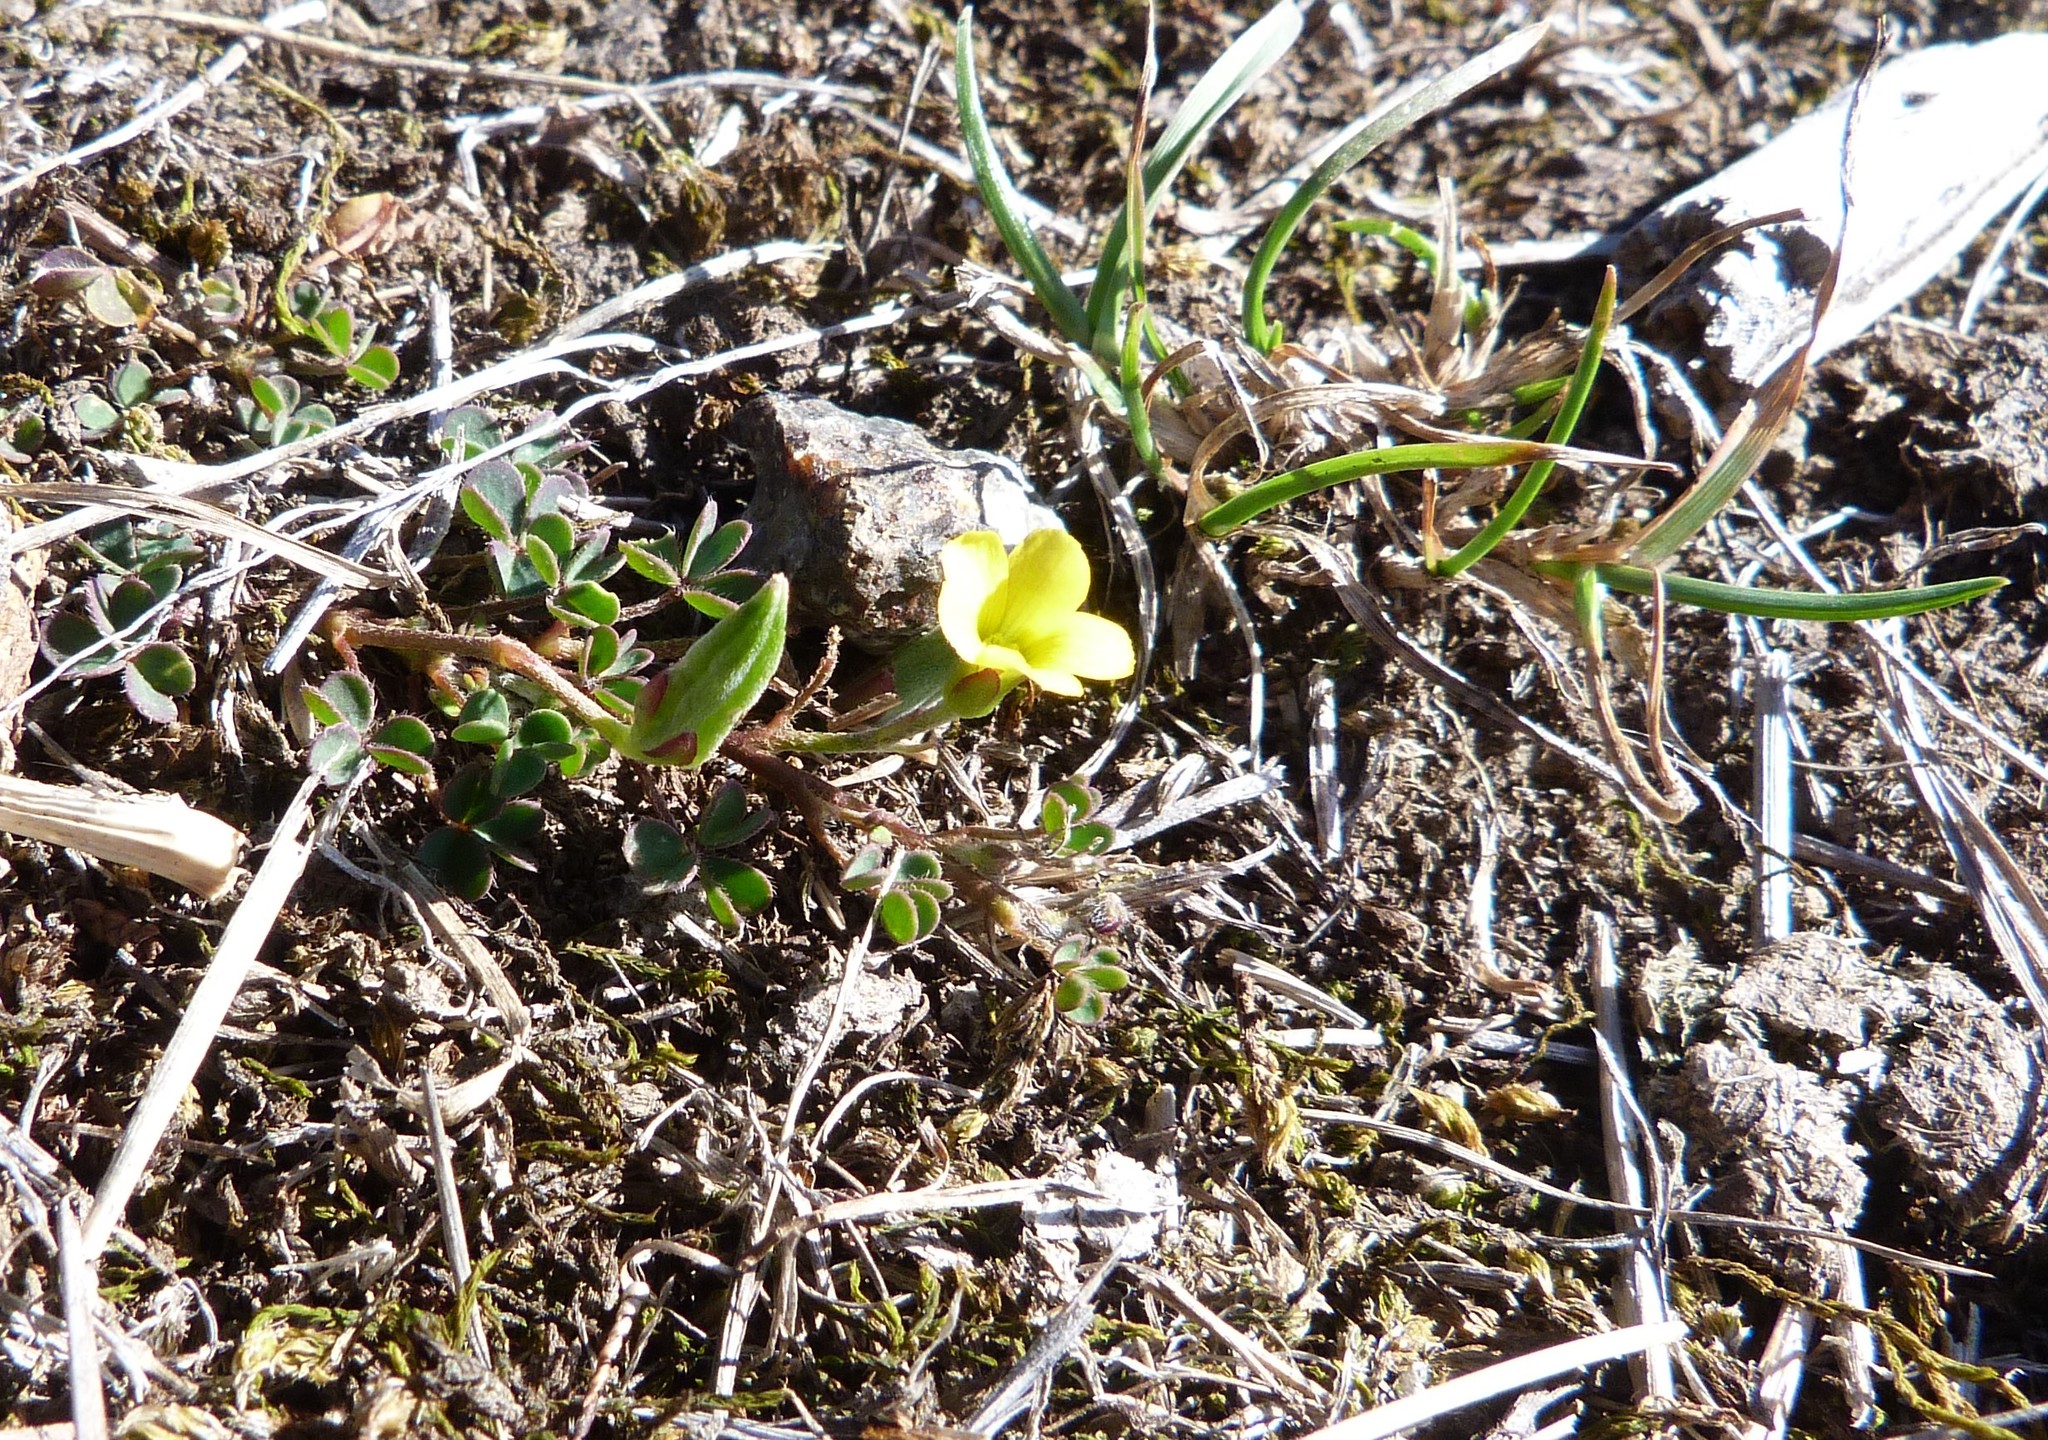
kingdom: Plantae
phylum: Tracheophyta
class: Magnoliopsida
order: Oxalidales
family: Oxalidaceae
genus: Oxalis
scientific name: Oxalis exilis
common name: Least yellow-sorrel
